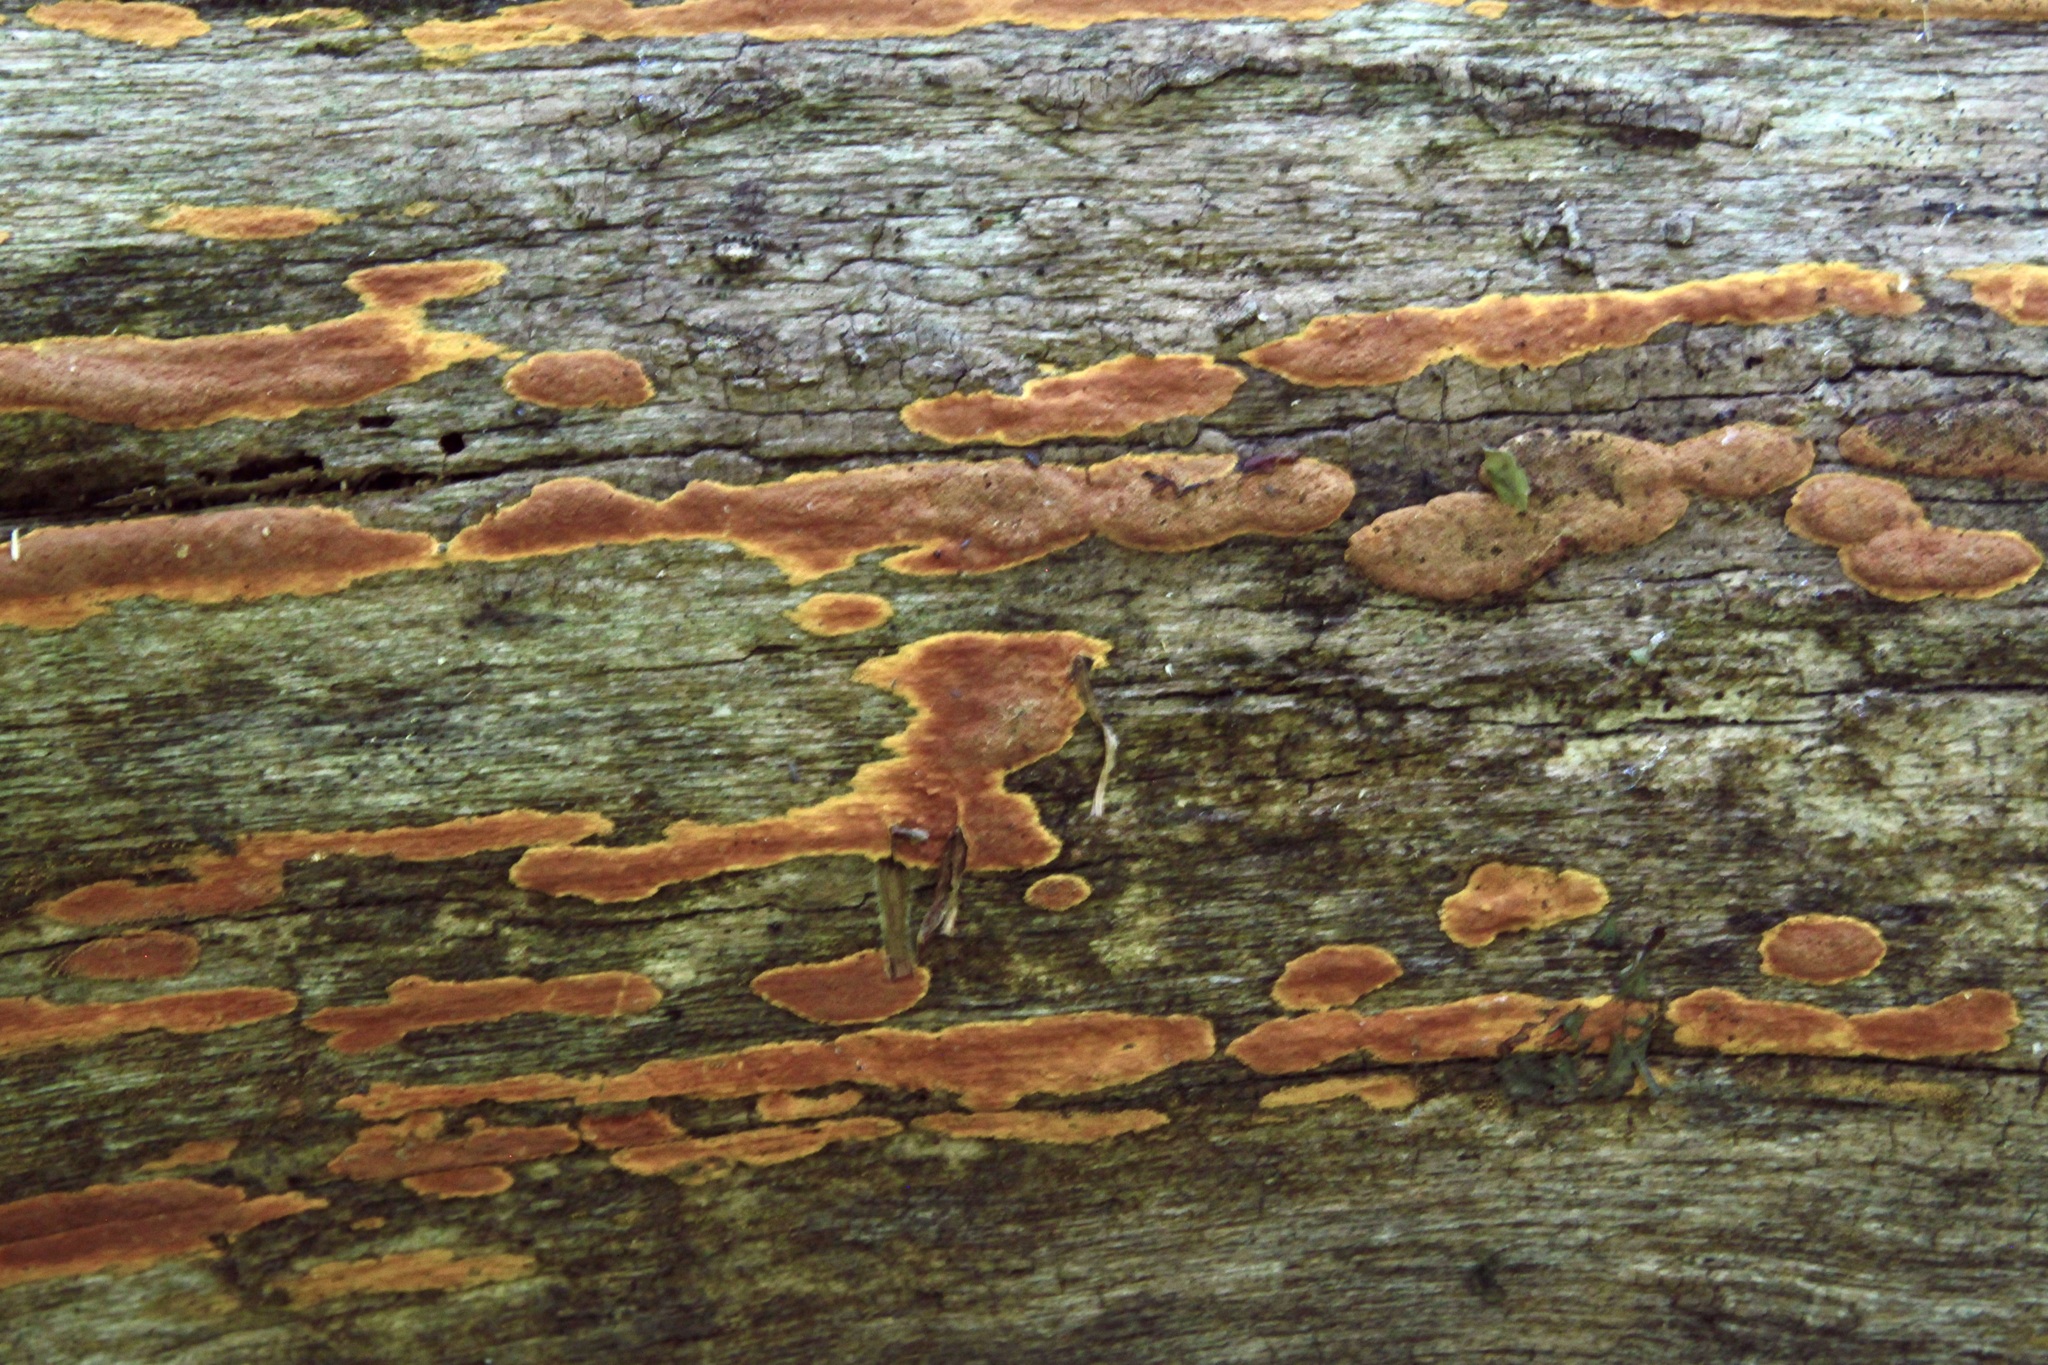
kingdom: Fungi
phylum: Basidiomycota
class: Agaricomycetes
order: Polyporales
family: Irpicaceae
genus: Ceriporia
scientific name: Ceriporia spissa
